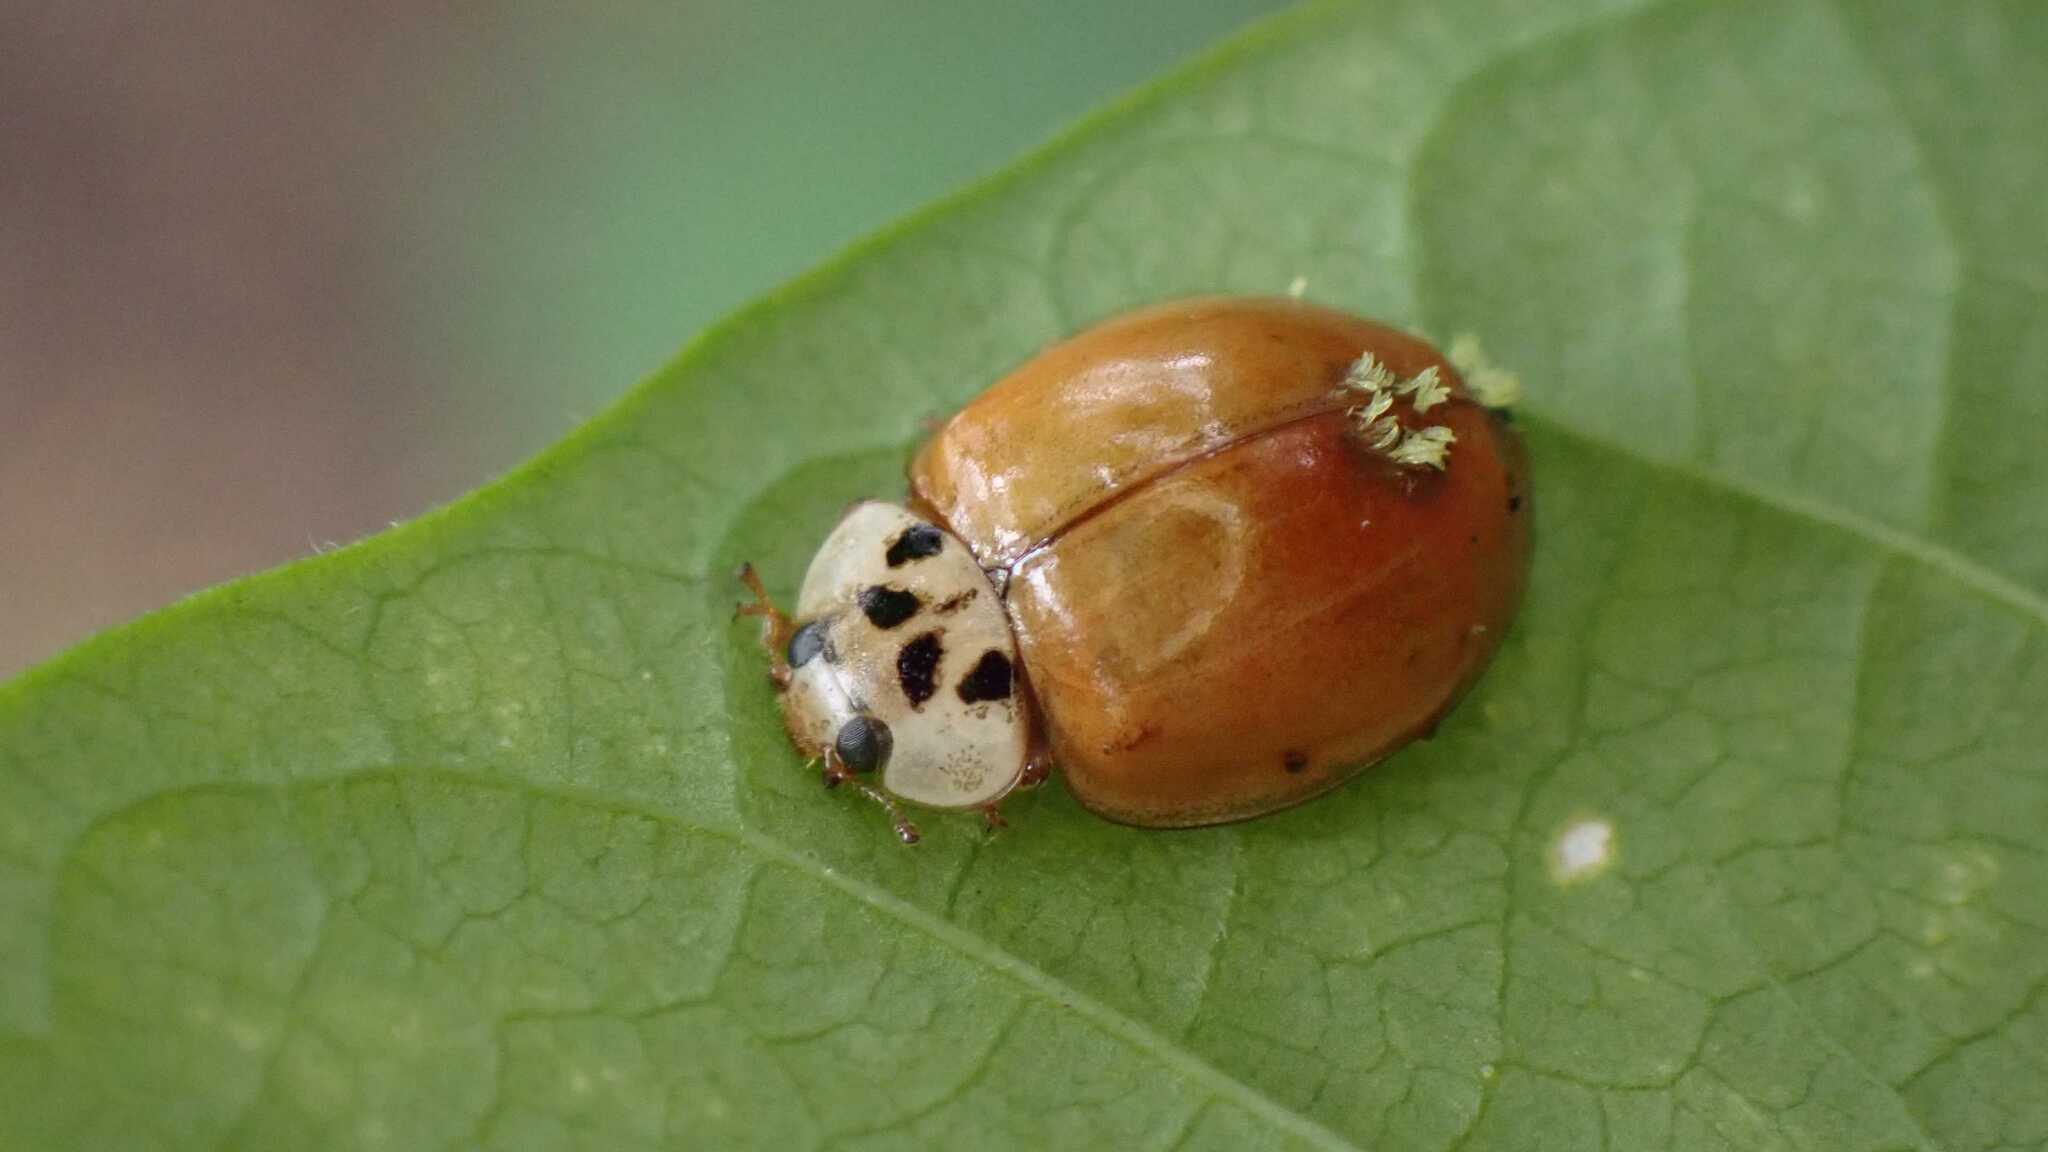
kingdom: Fungi
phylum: Ascomycota
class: Laboulbeniomycetes
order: Laboulbeniales
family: Laboulbeniaceae
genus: Hesperomyces
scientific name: Hesperomyces harmoniae
